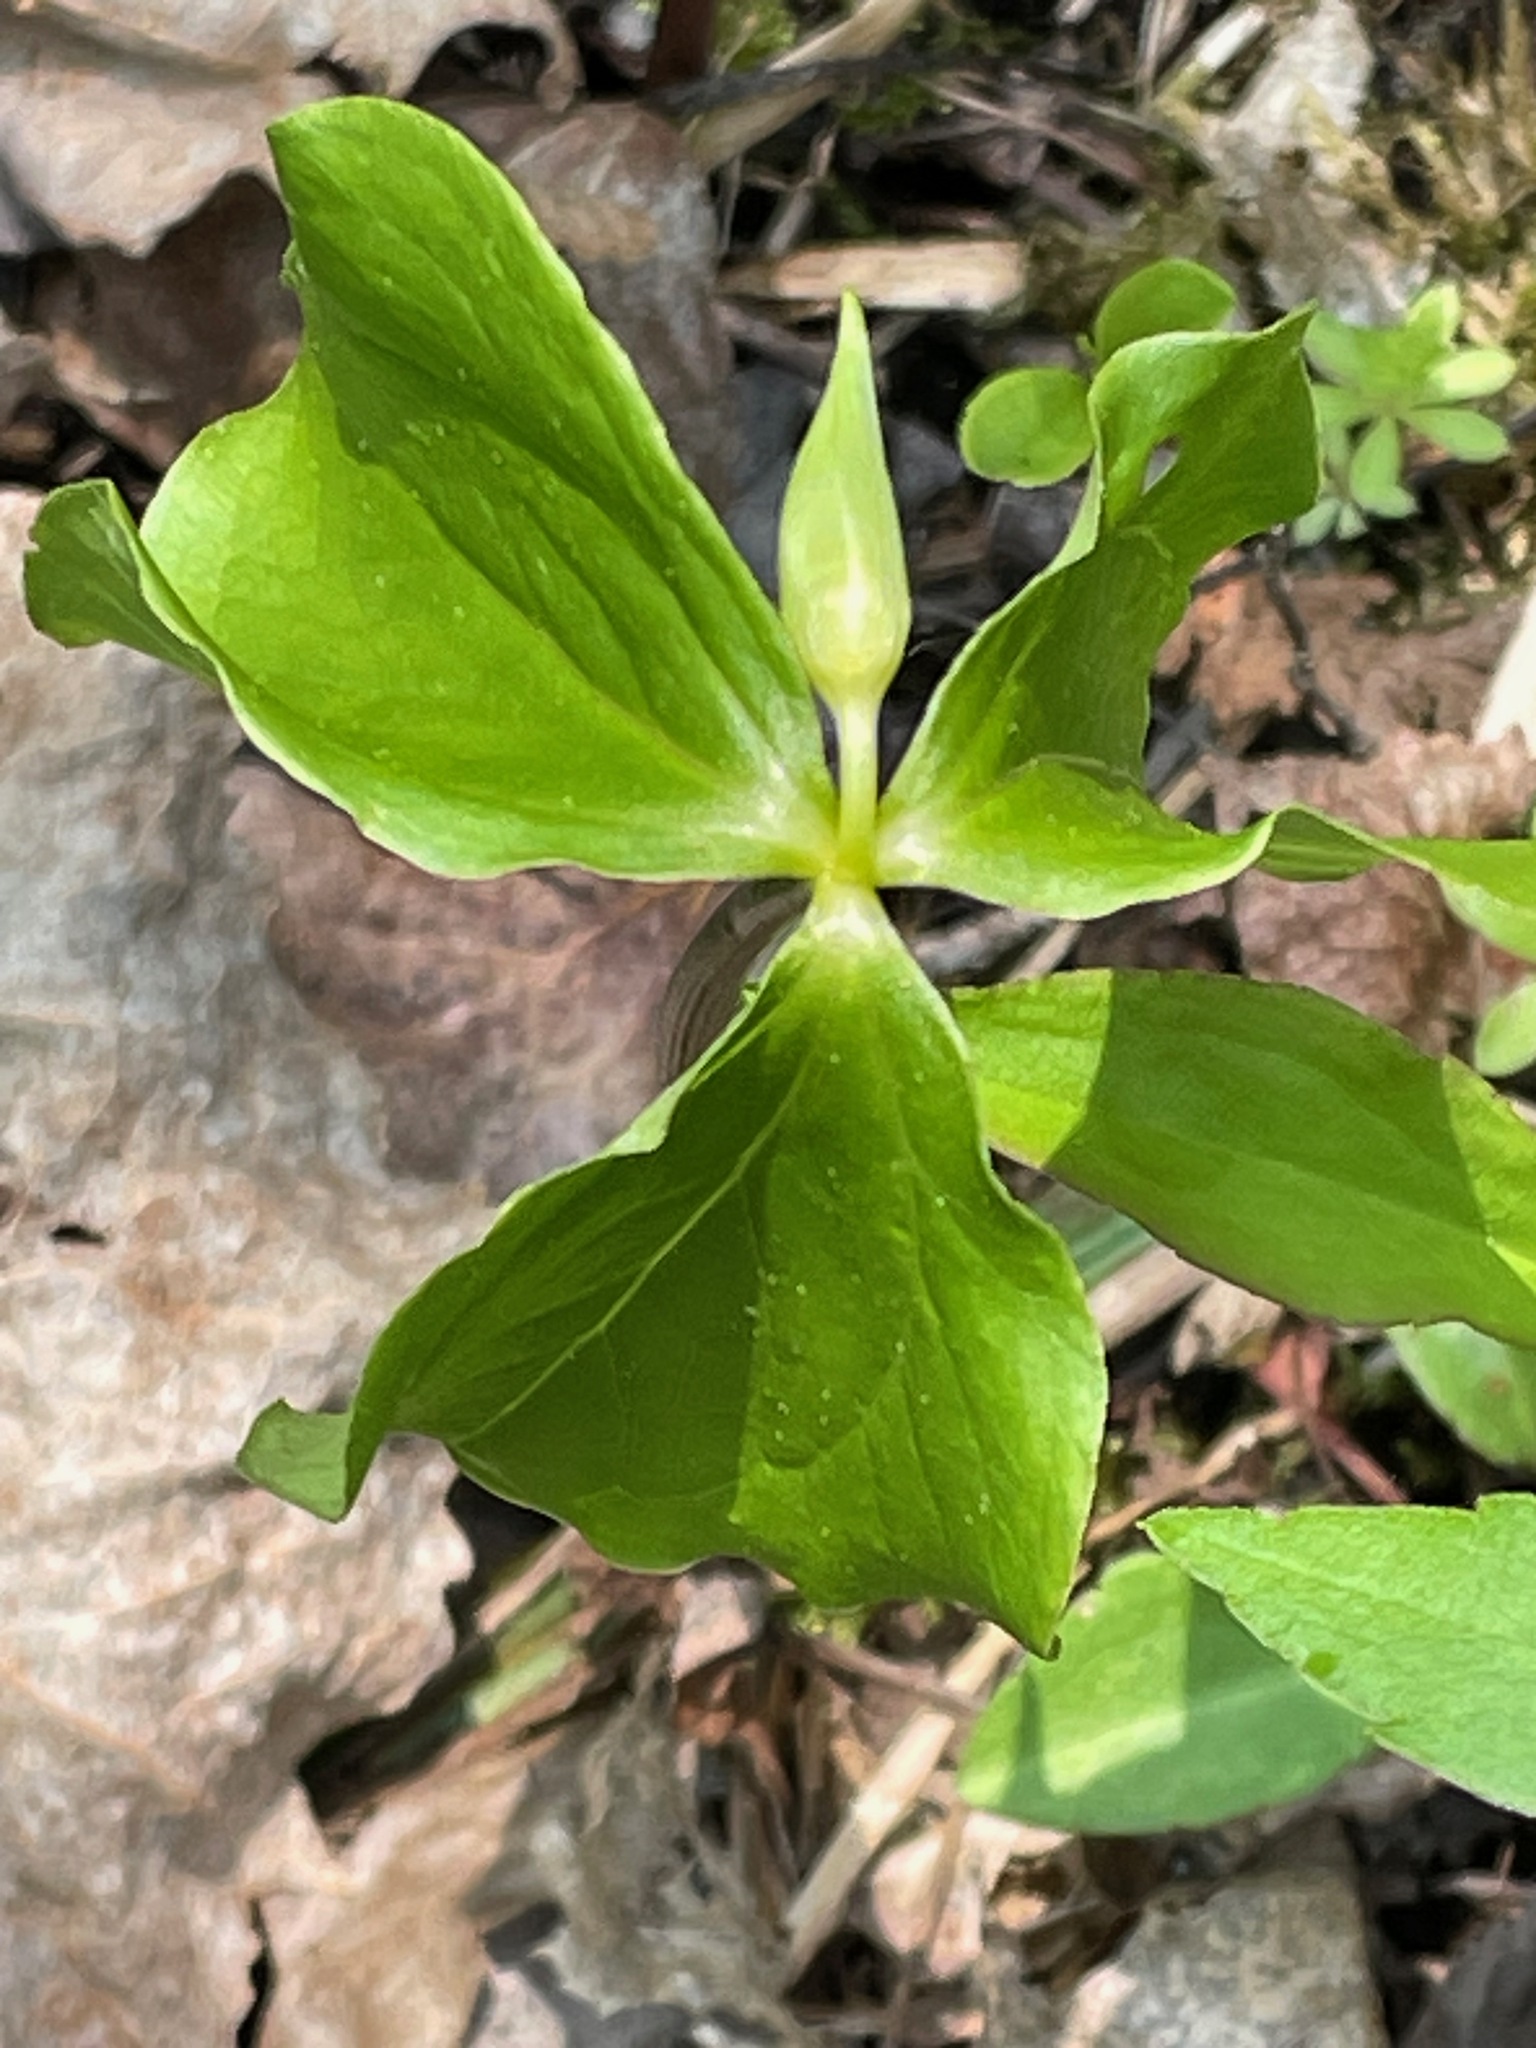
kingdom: Plantae
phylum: Tracheophyta
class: Liliopsida
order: Liliales
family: Melanthiaceae
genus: Trillium
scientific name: Trillium cernuum
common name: Nodding trillium
